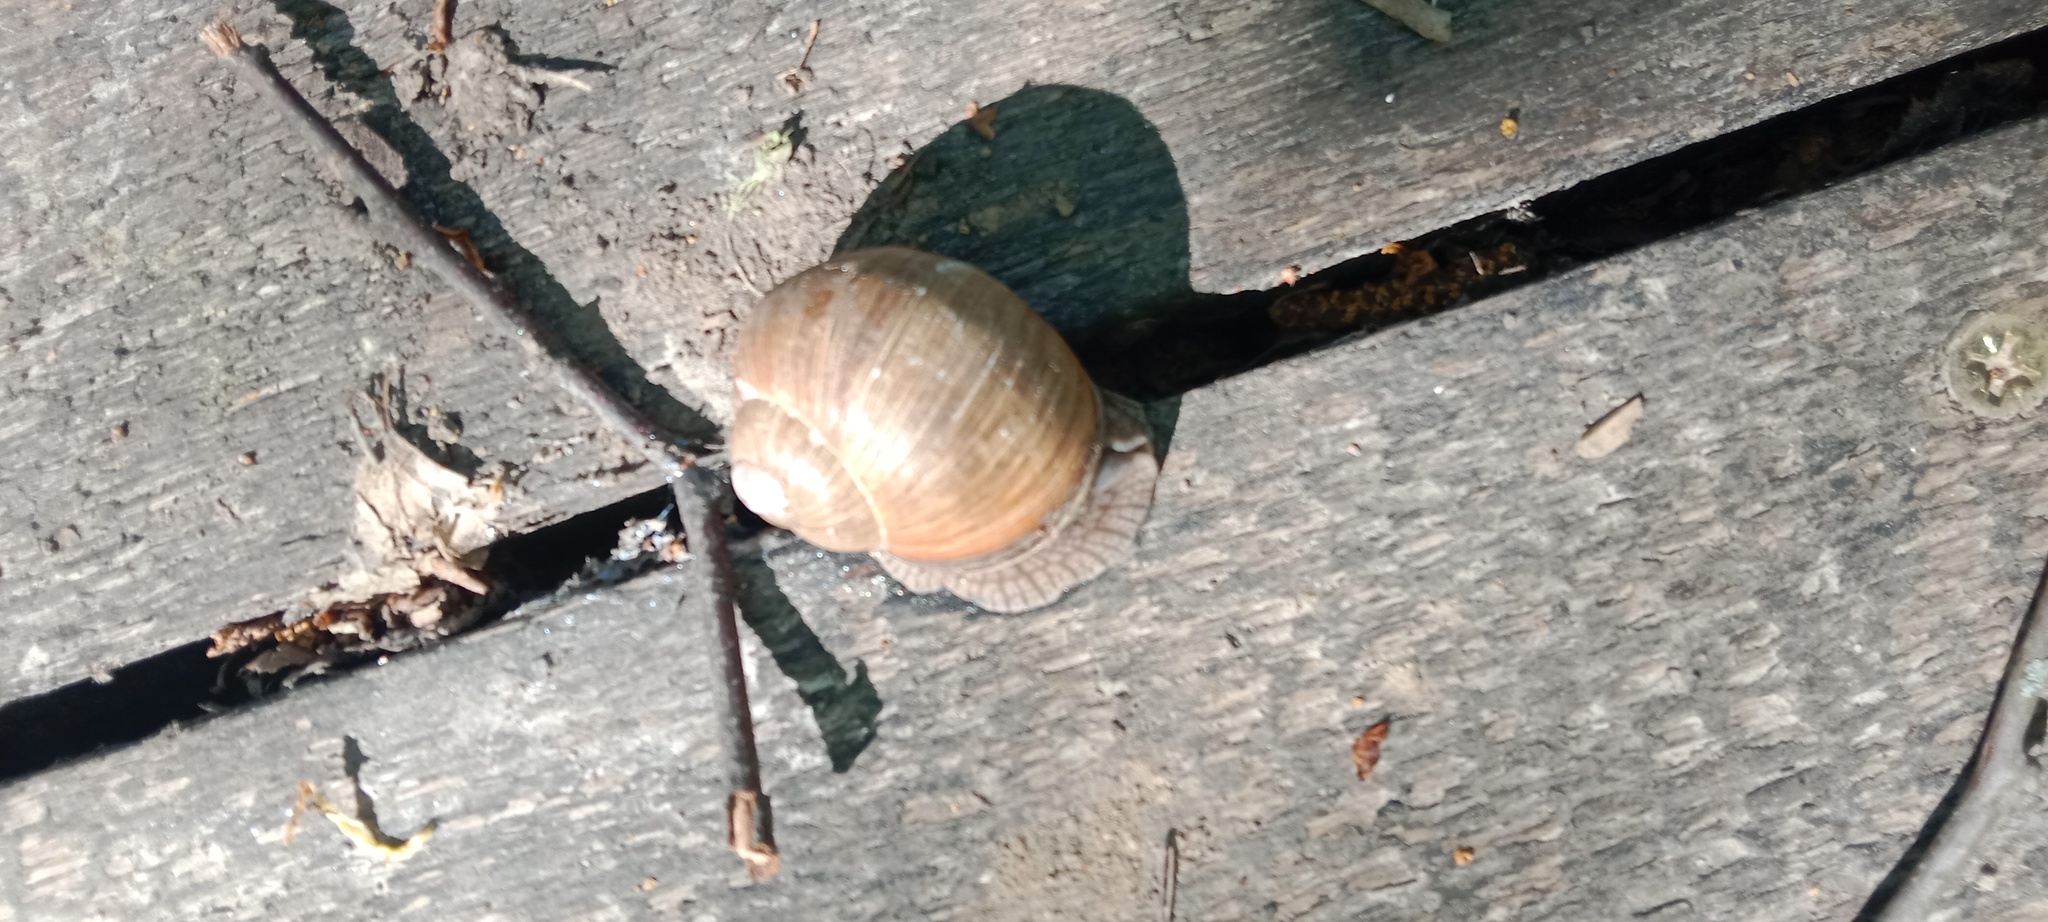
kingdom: Animalia
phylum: Mollusca
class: Gastropoda
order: Stylommatophora
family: Helicidae
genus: Helix
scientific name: Helix pomatia
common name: Roman snail
